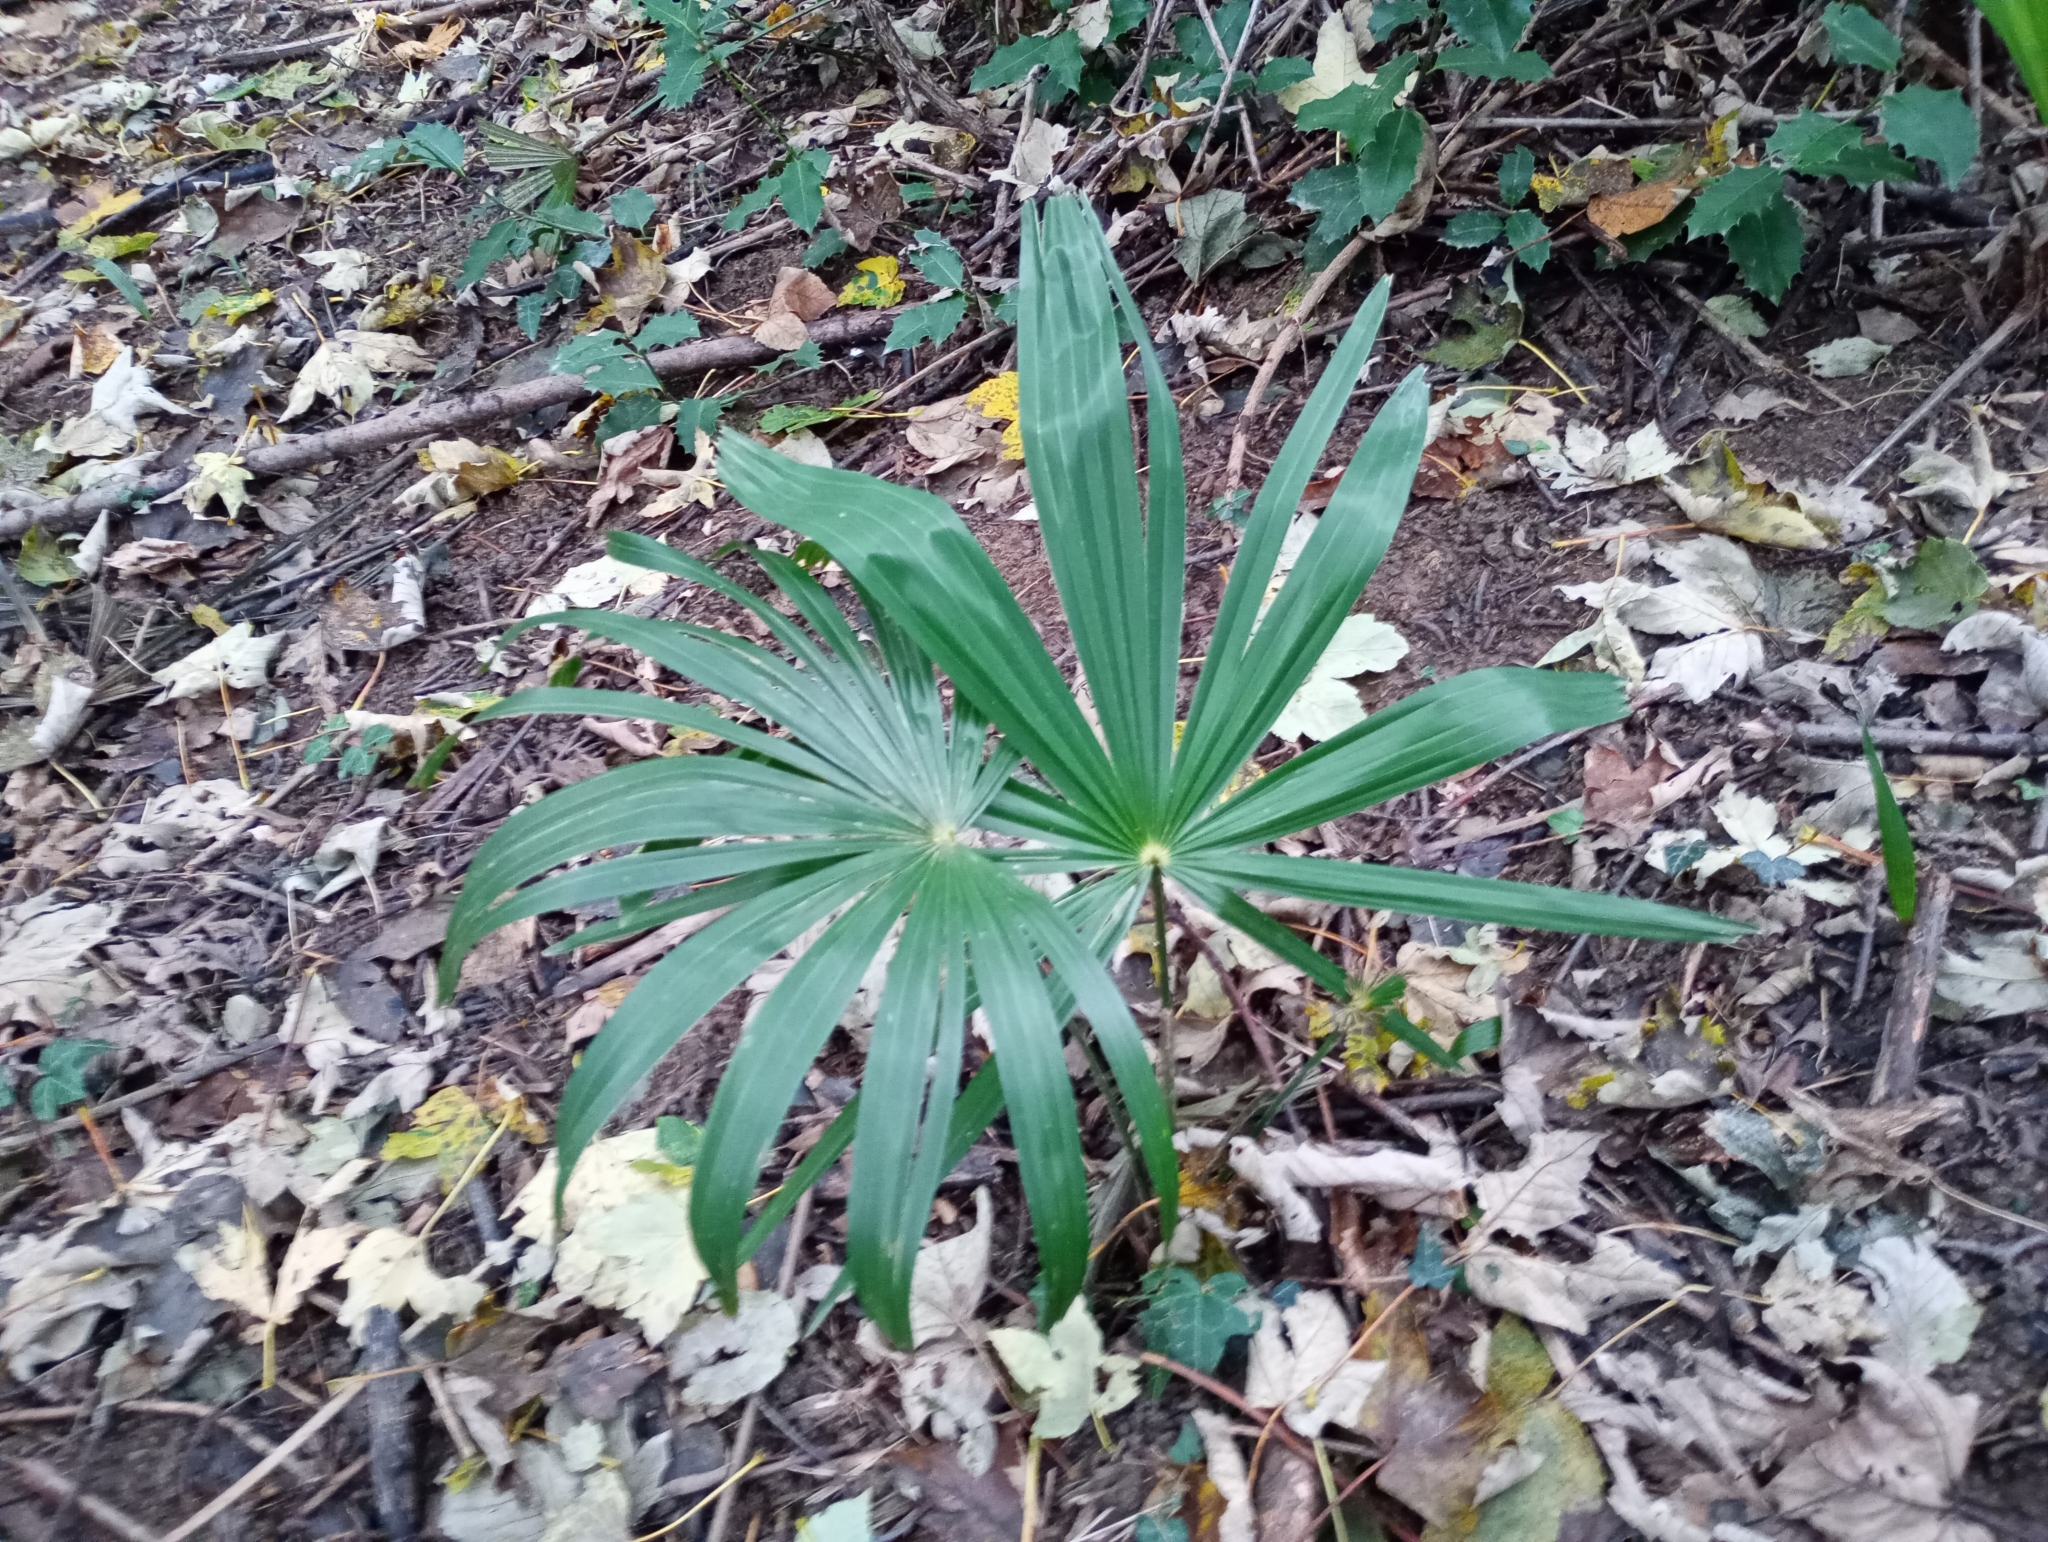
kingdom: Plantae
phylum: Tracheophyta
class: Liliopsida
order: Arecales
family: Arecaceae
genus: Trachycarpus
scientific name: Trachycarpus fortunei
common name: Chusan palm
